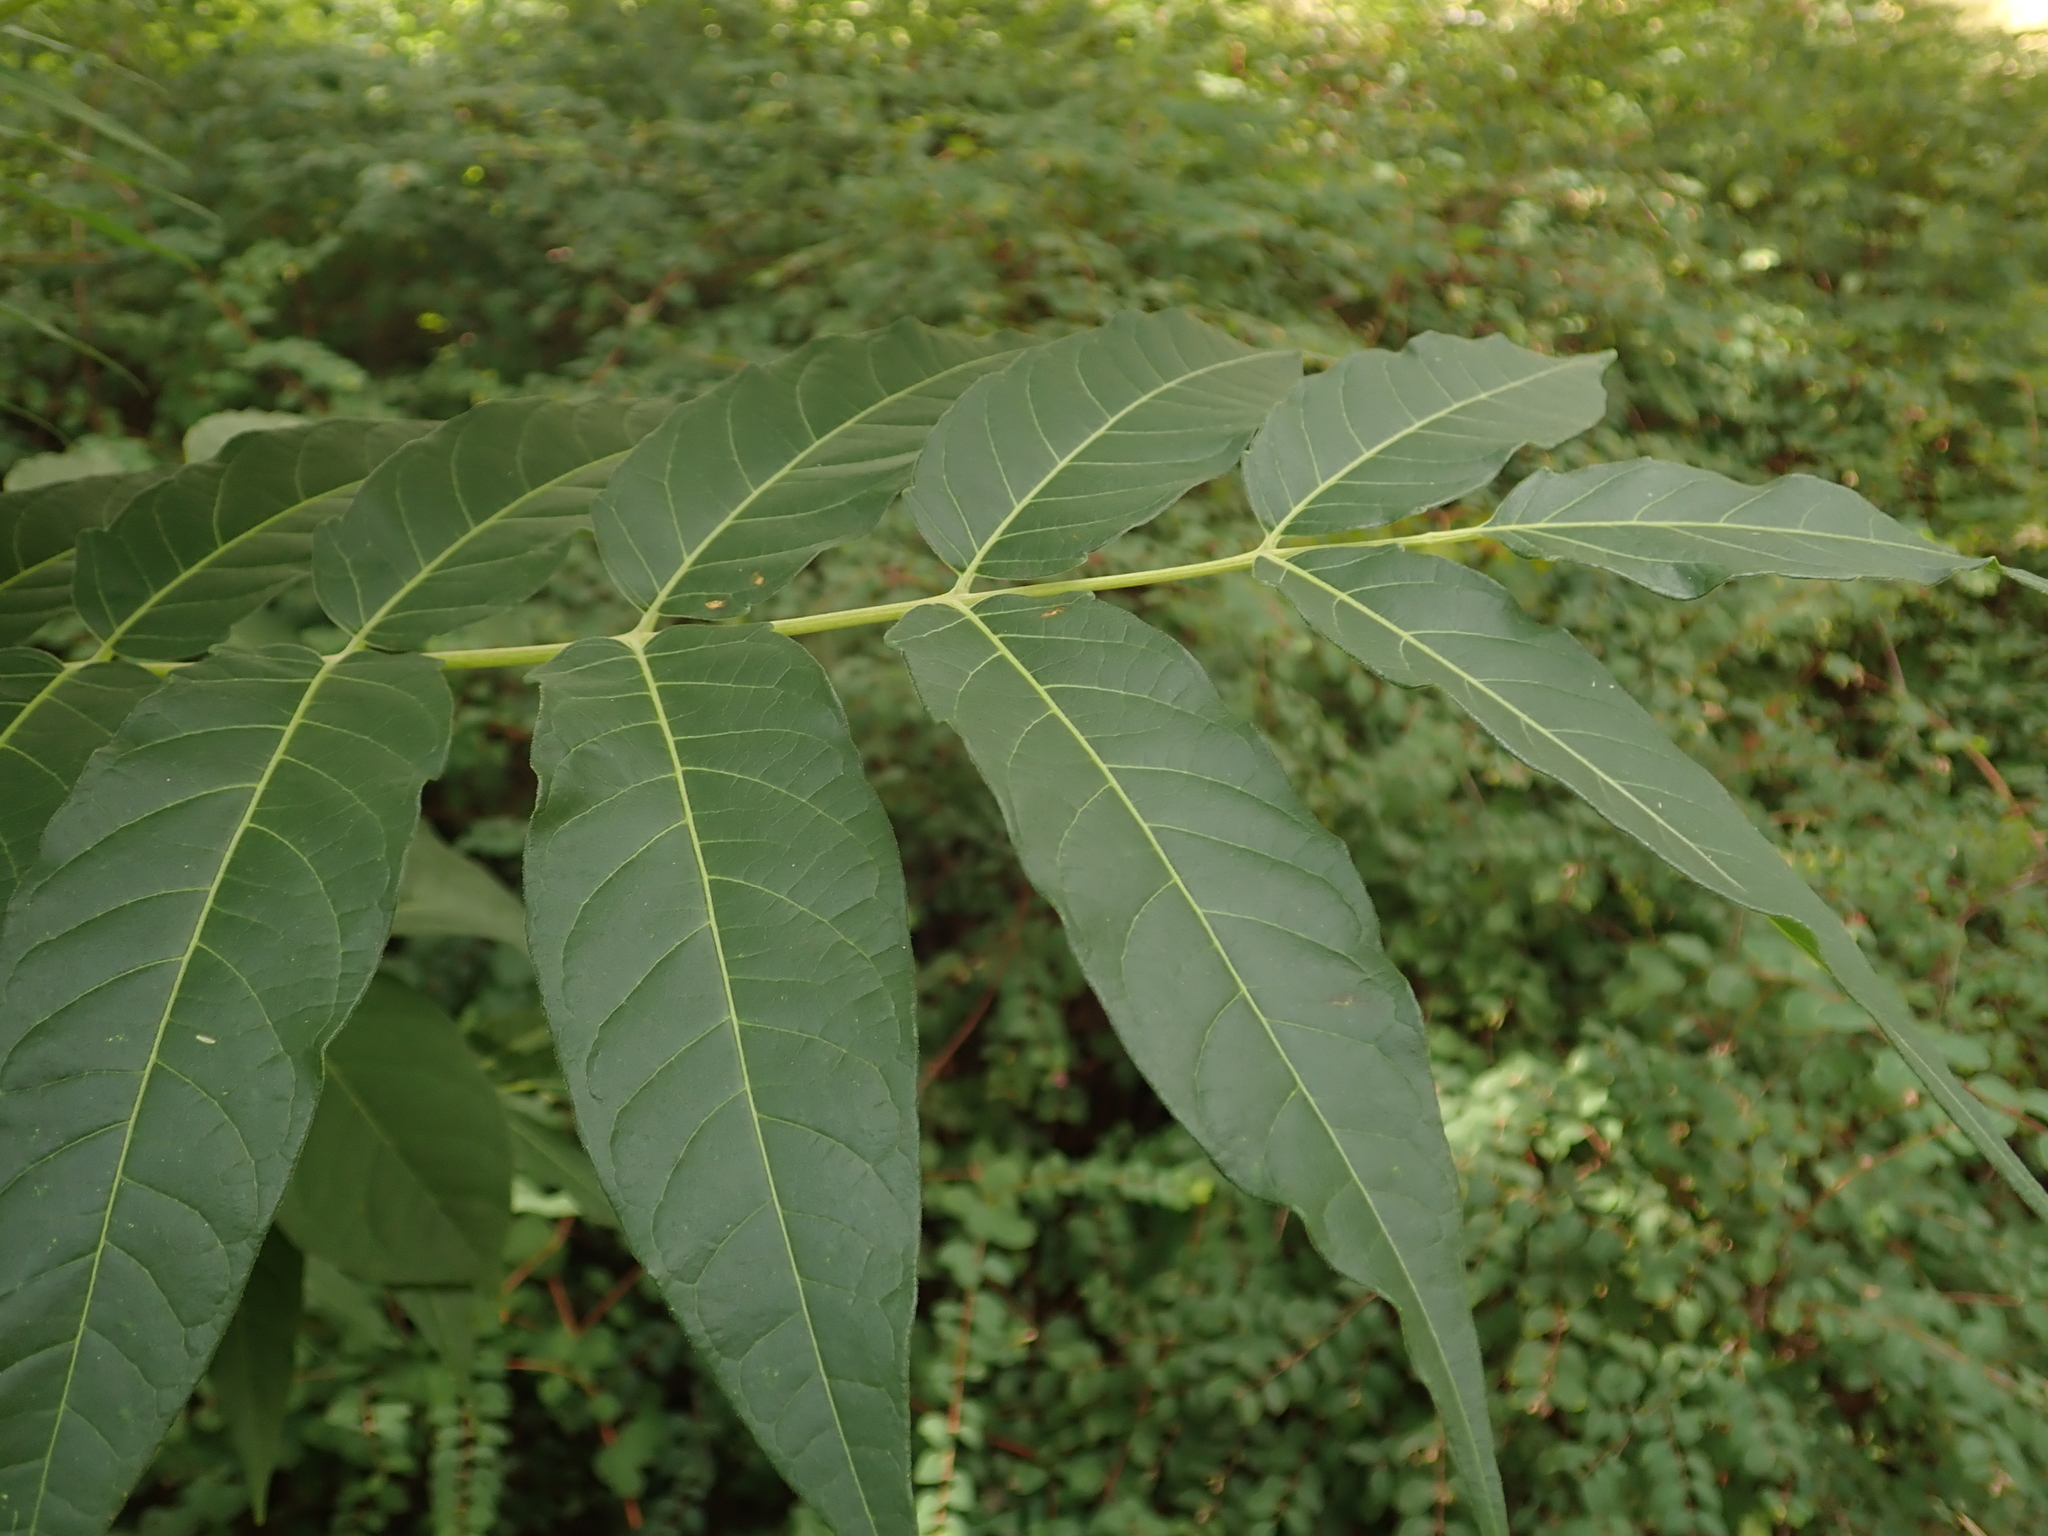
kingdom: Plantae
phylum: Tracheophyta
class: Magnoliopsida
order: Sapindales
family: Simaroubaceae
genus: Ailanthus
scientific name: Ailanthus altissima
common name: Tree-of-heaven
